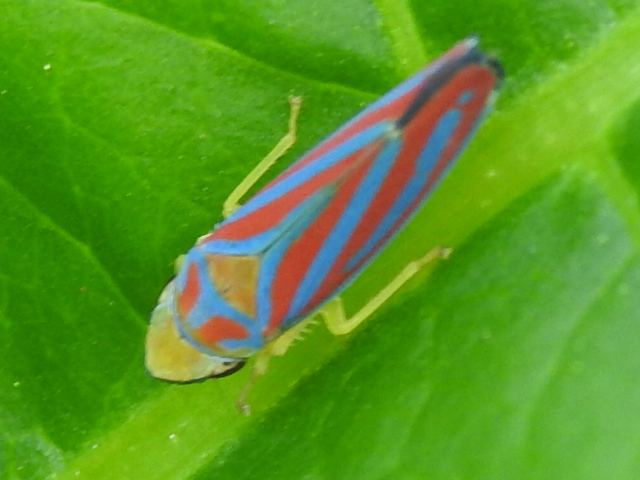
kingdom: Animalia
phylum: Arthropoda
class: Insecta
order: Hemiptera
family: Cicadellidae
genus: Graphocephala
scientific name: Graphocephala coccinea
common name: Candy-striped leafhopper
